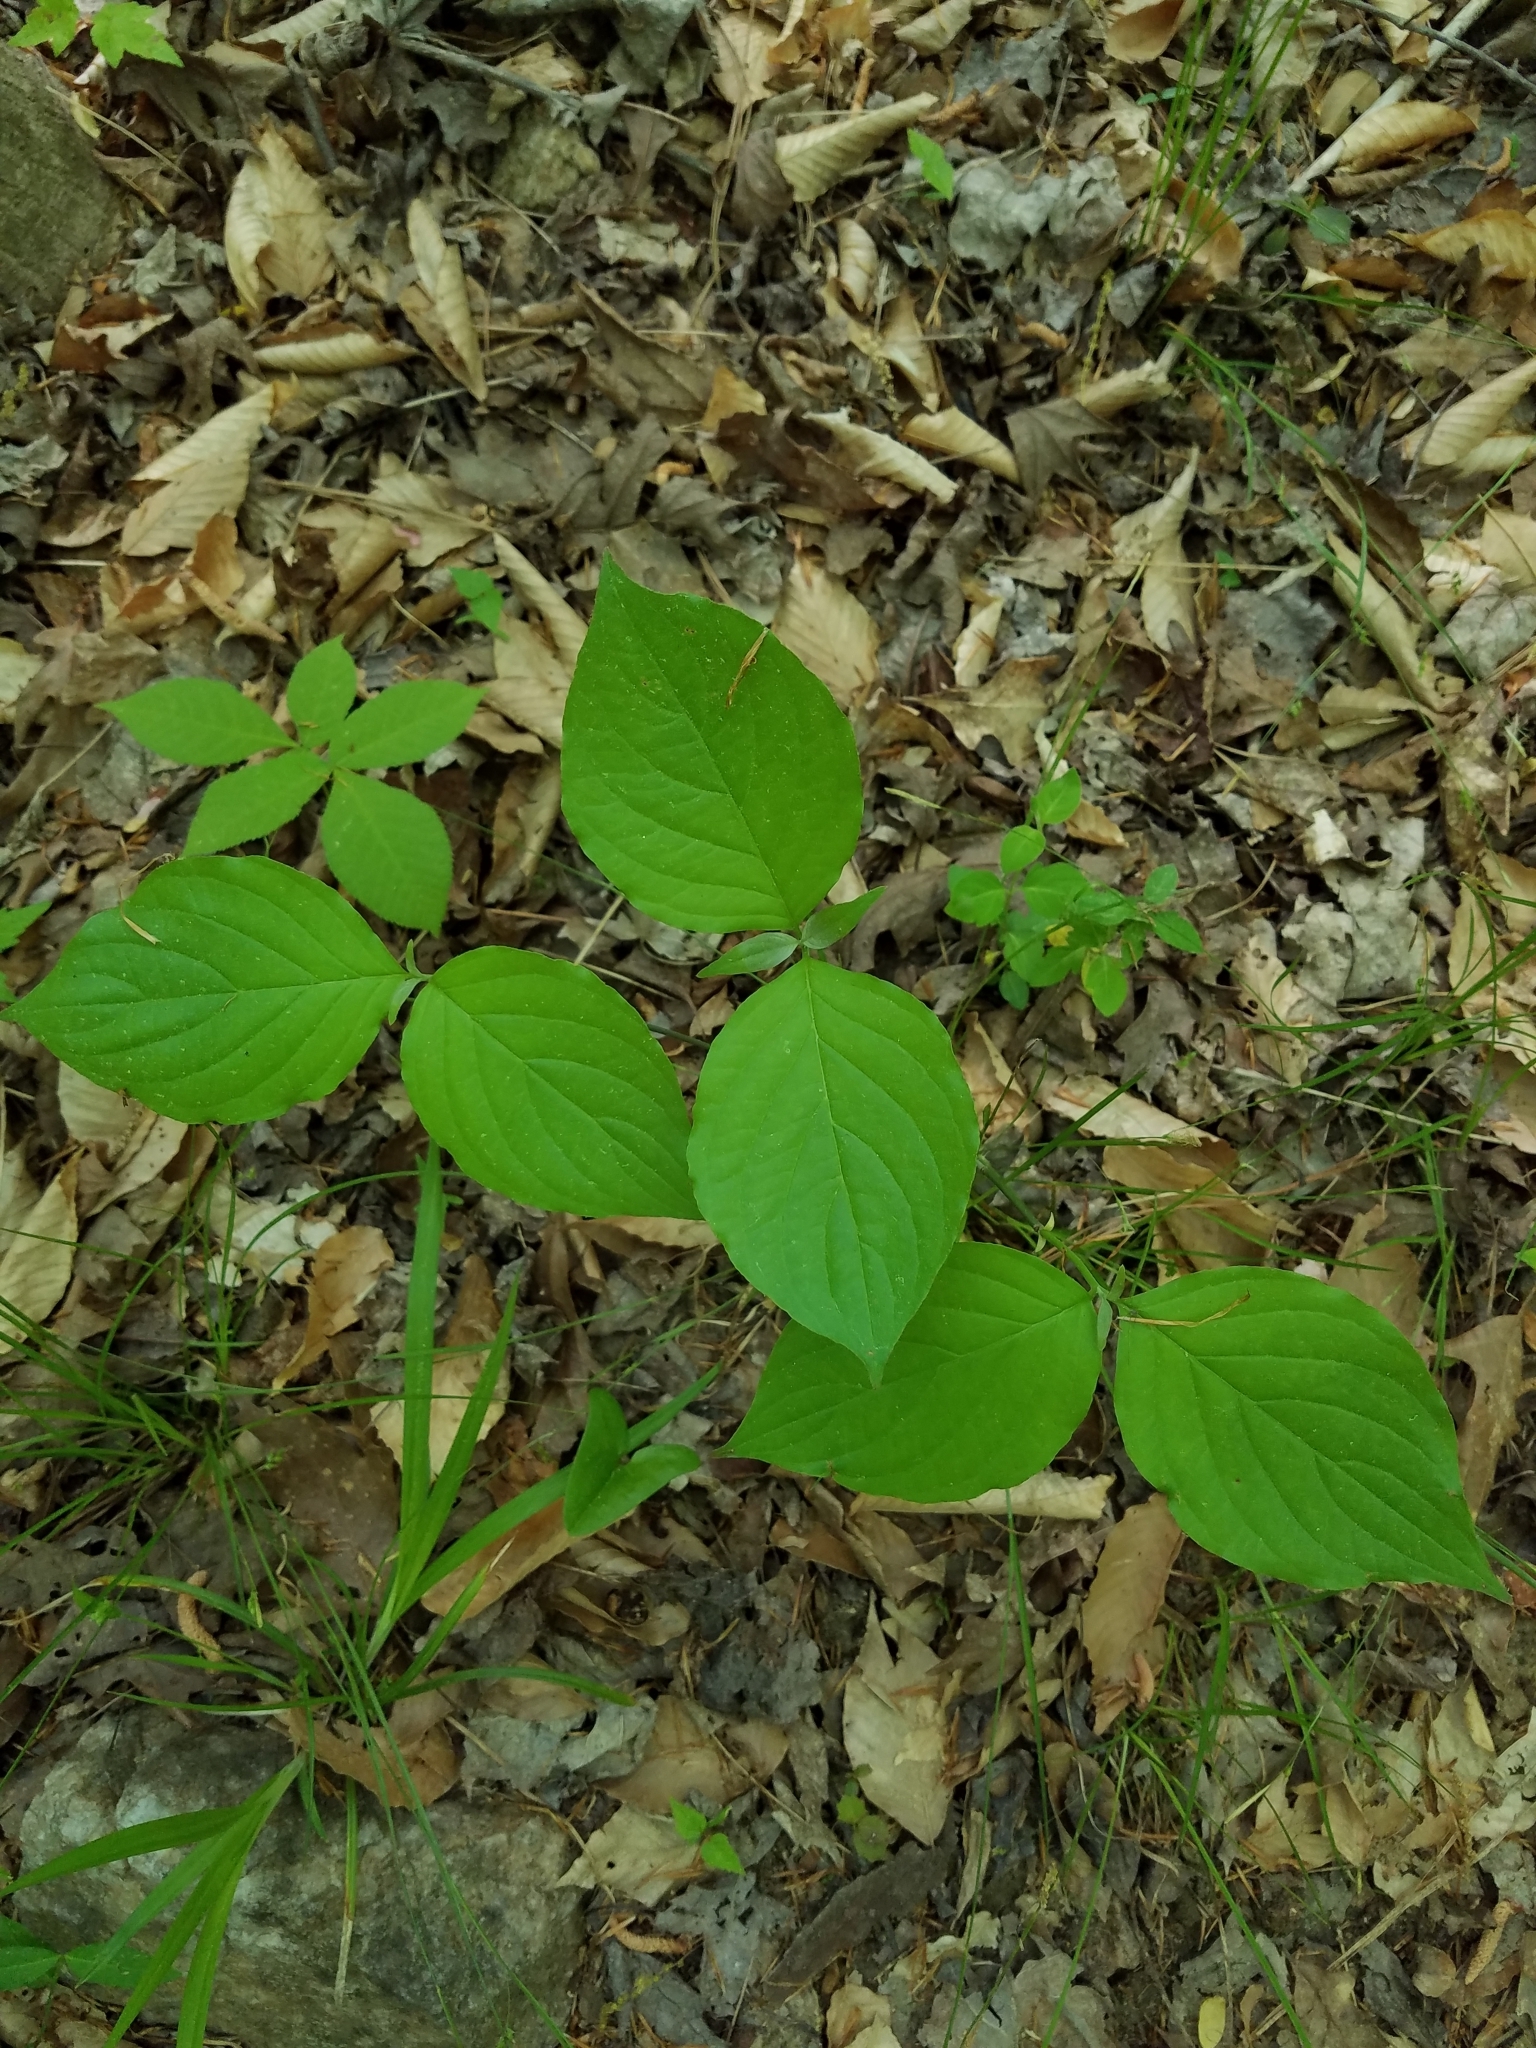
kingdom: Plantae
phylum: Tracheophyta
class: Magnoliopsida
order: Cornales
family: Cornaceae
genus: Cornus
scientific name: Cornus florida
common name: Flowering dogwood
